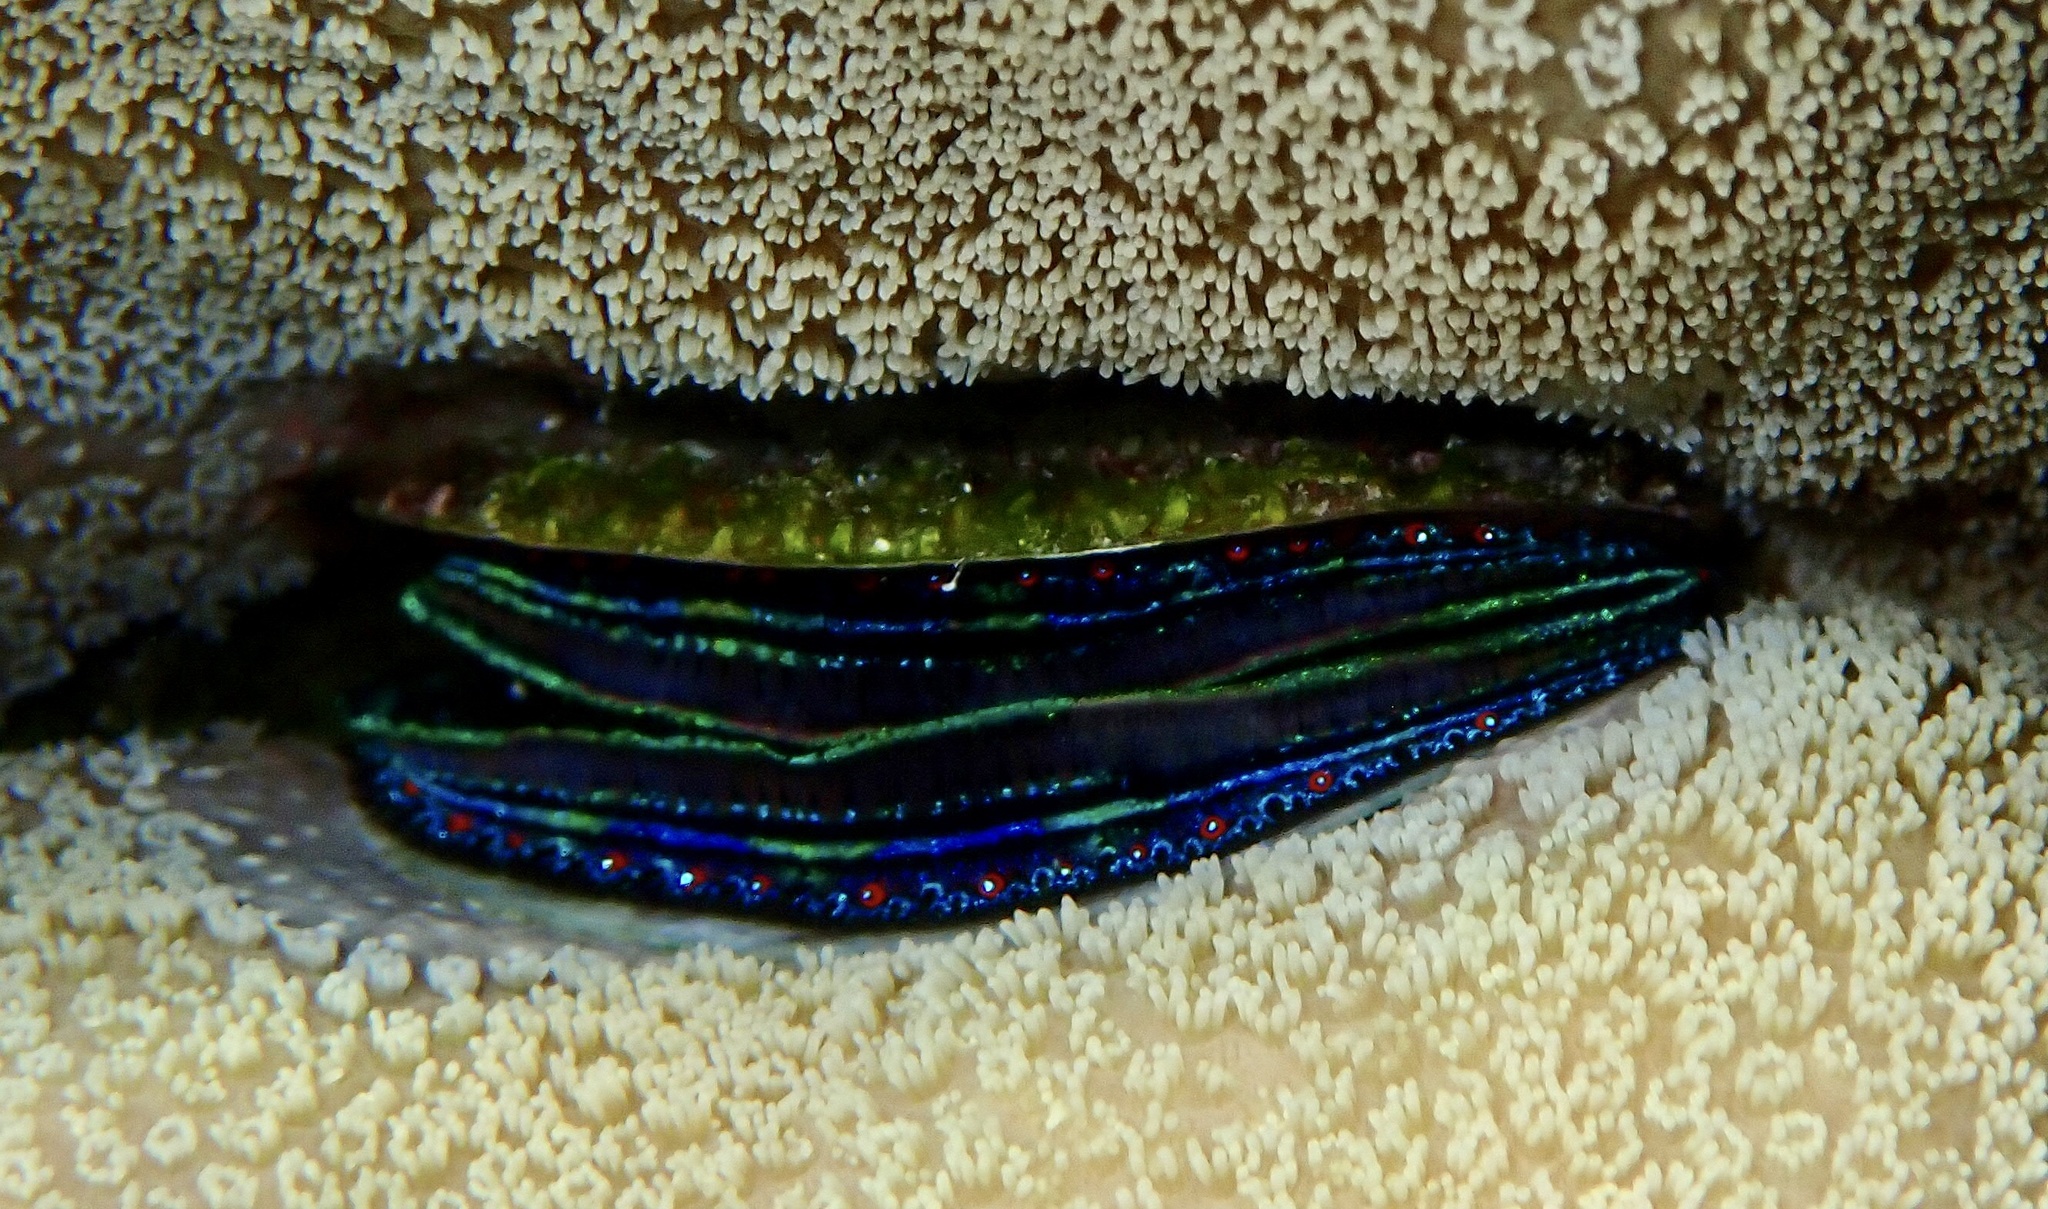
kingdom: Animalia
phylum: Mollusca
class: Bivalvia
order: Pectinida
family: Pectinidae
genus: Pedum
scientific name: Pedum spondyloideum
